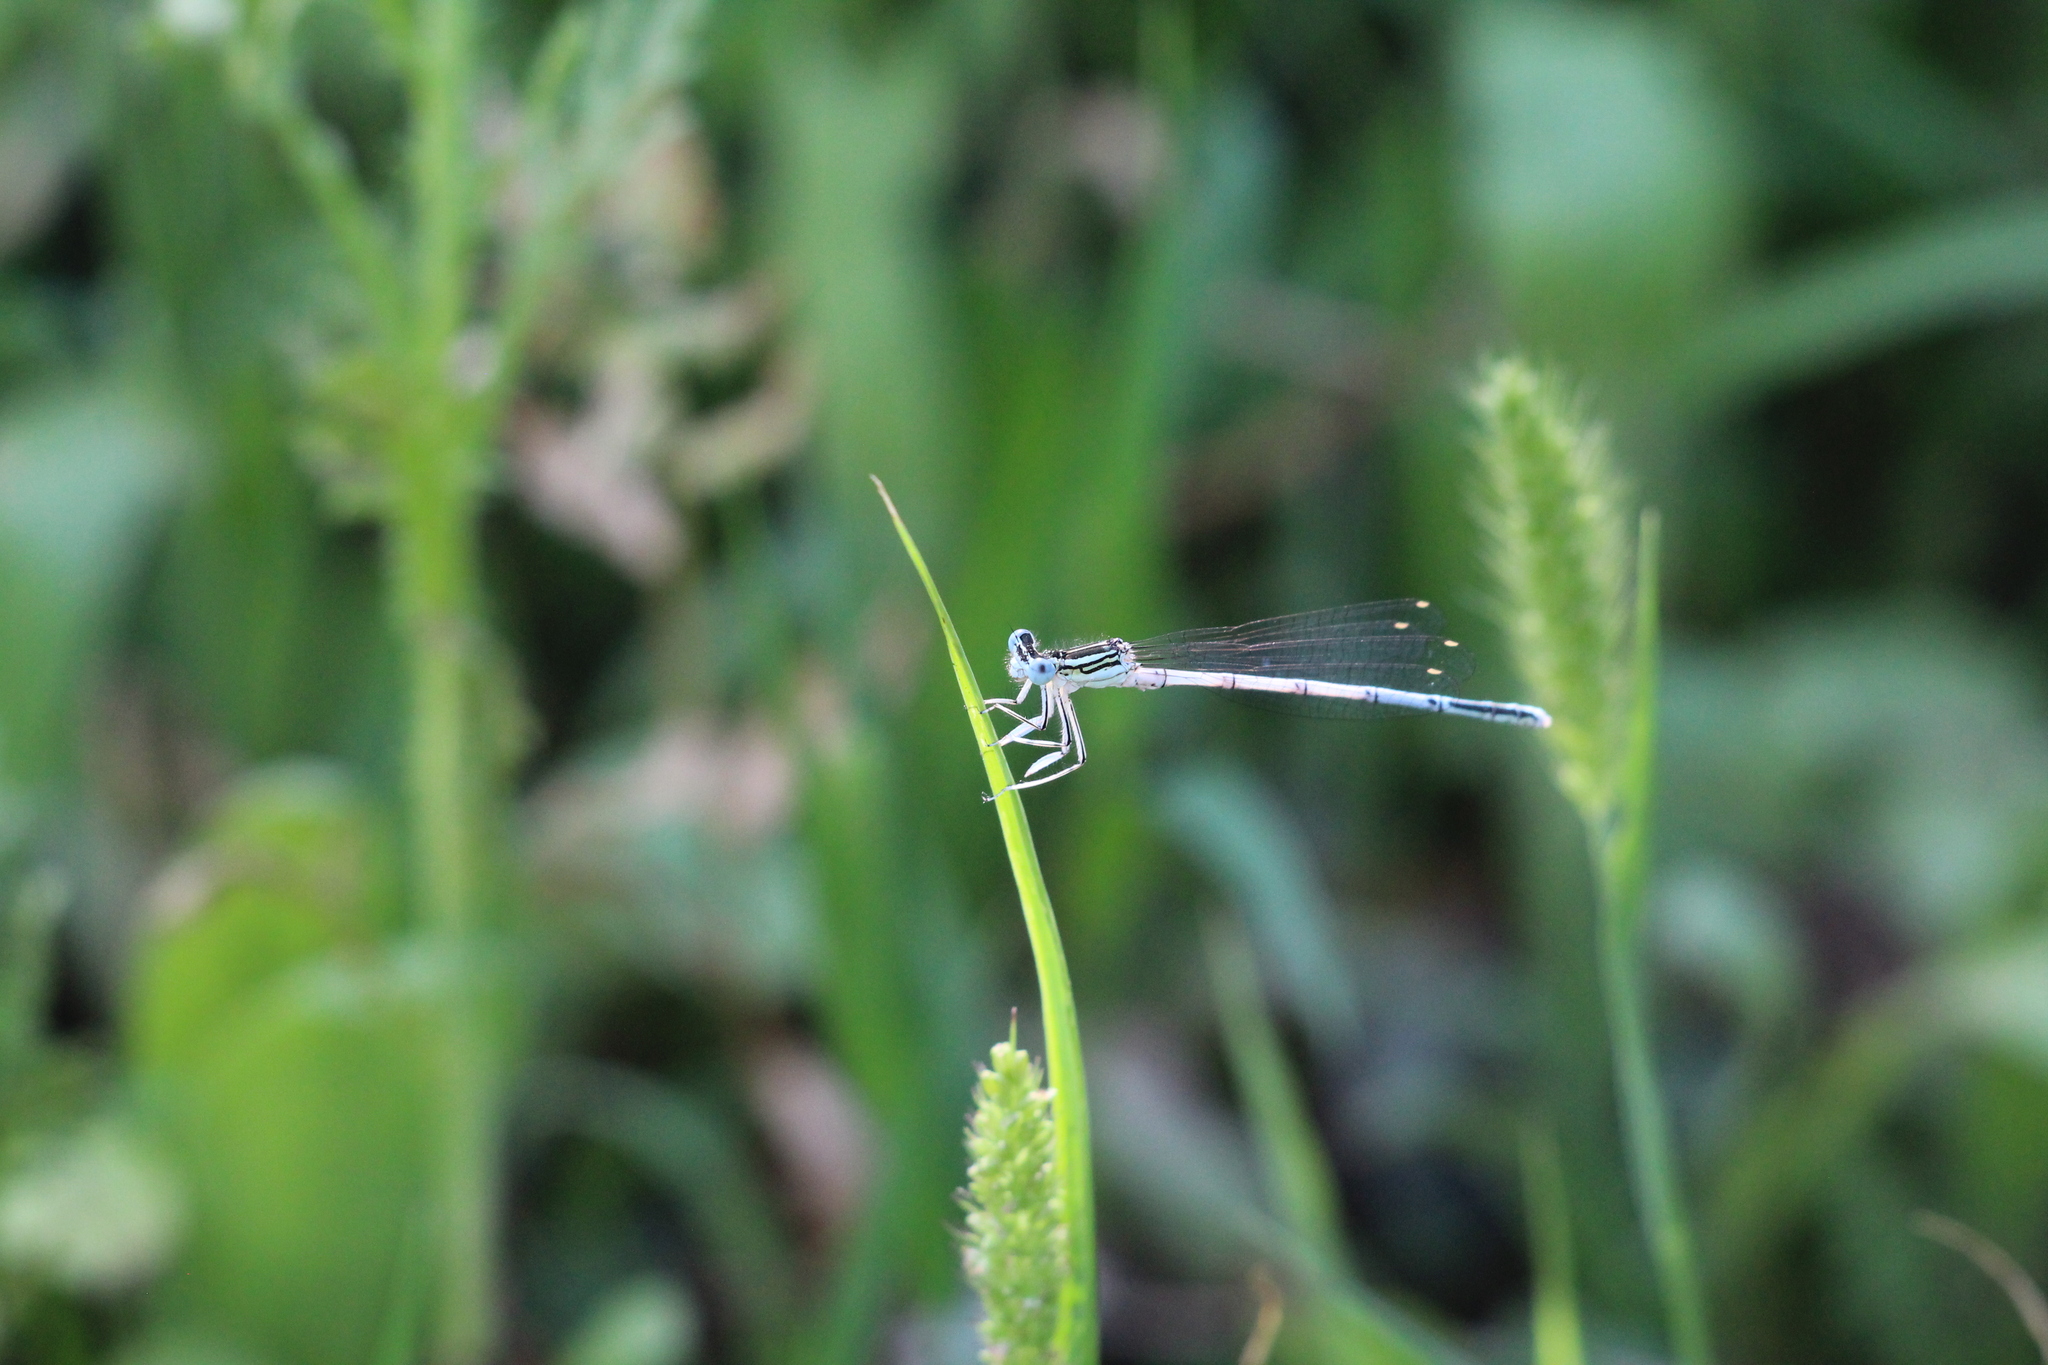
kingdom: Animalia
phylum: Arthropoda
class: Insecta
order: Odonata
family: Platycnemididae
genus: Platycnemis
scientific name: Platycnemis pennipes
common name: White-legged damselfly
